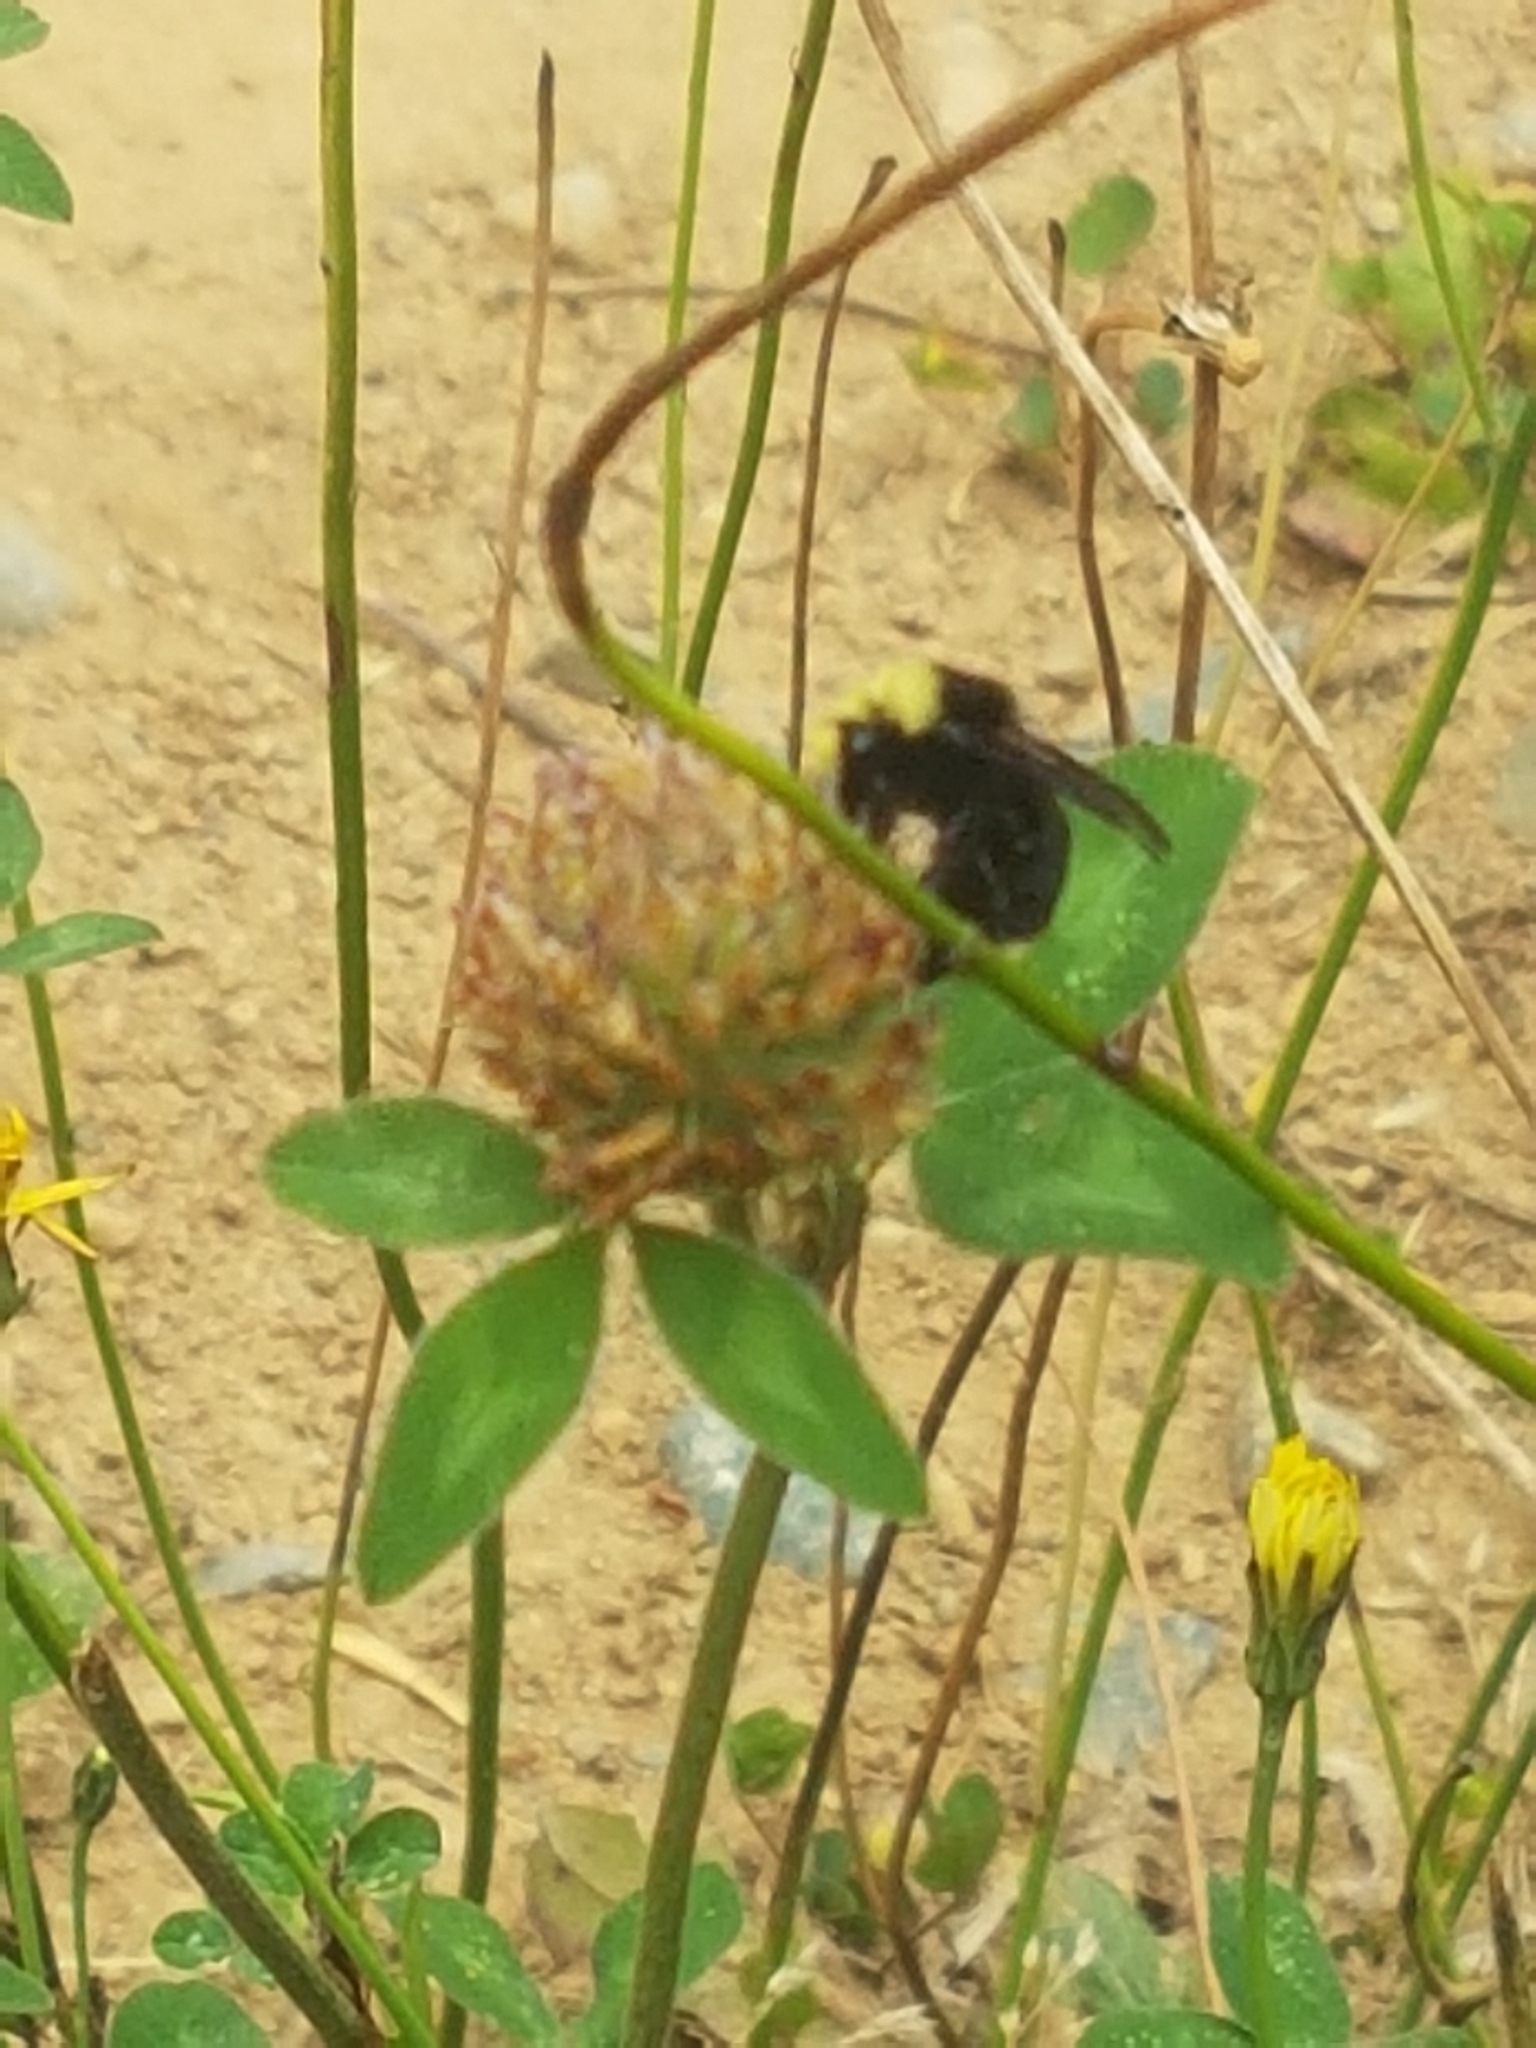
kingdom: Animalia
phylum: Arthropoda
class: Insecta
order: Hymenoptera
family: Apidae
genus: Bombus
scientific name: Bombus vosnesenskii
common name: Vosnesensky bumble bee
